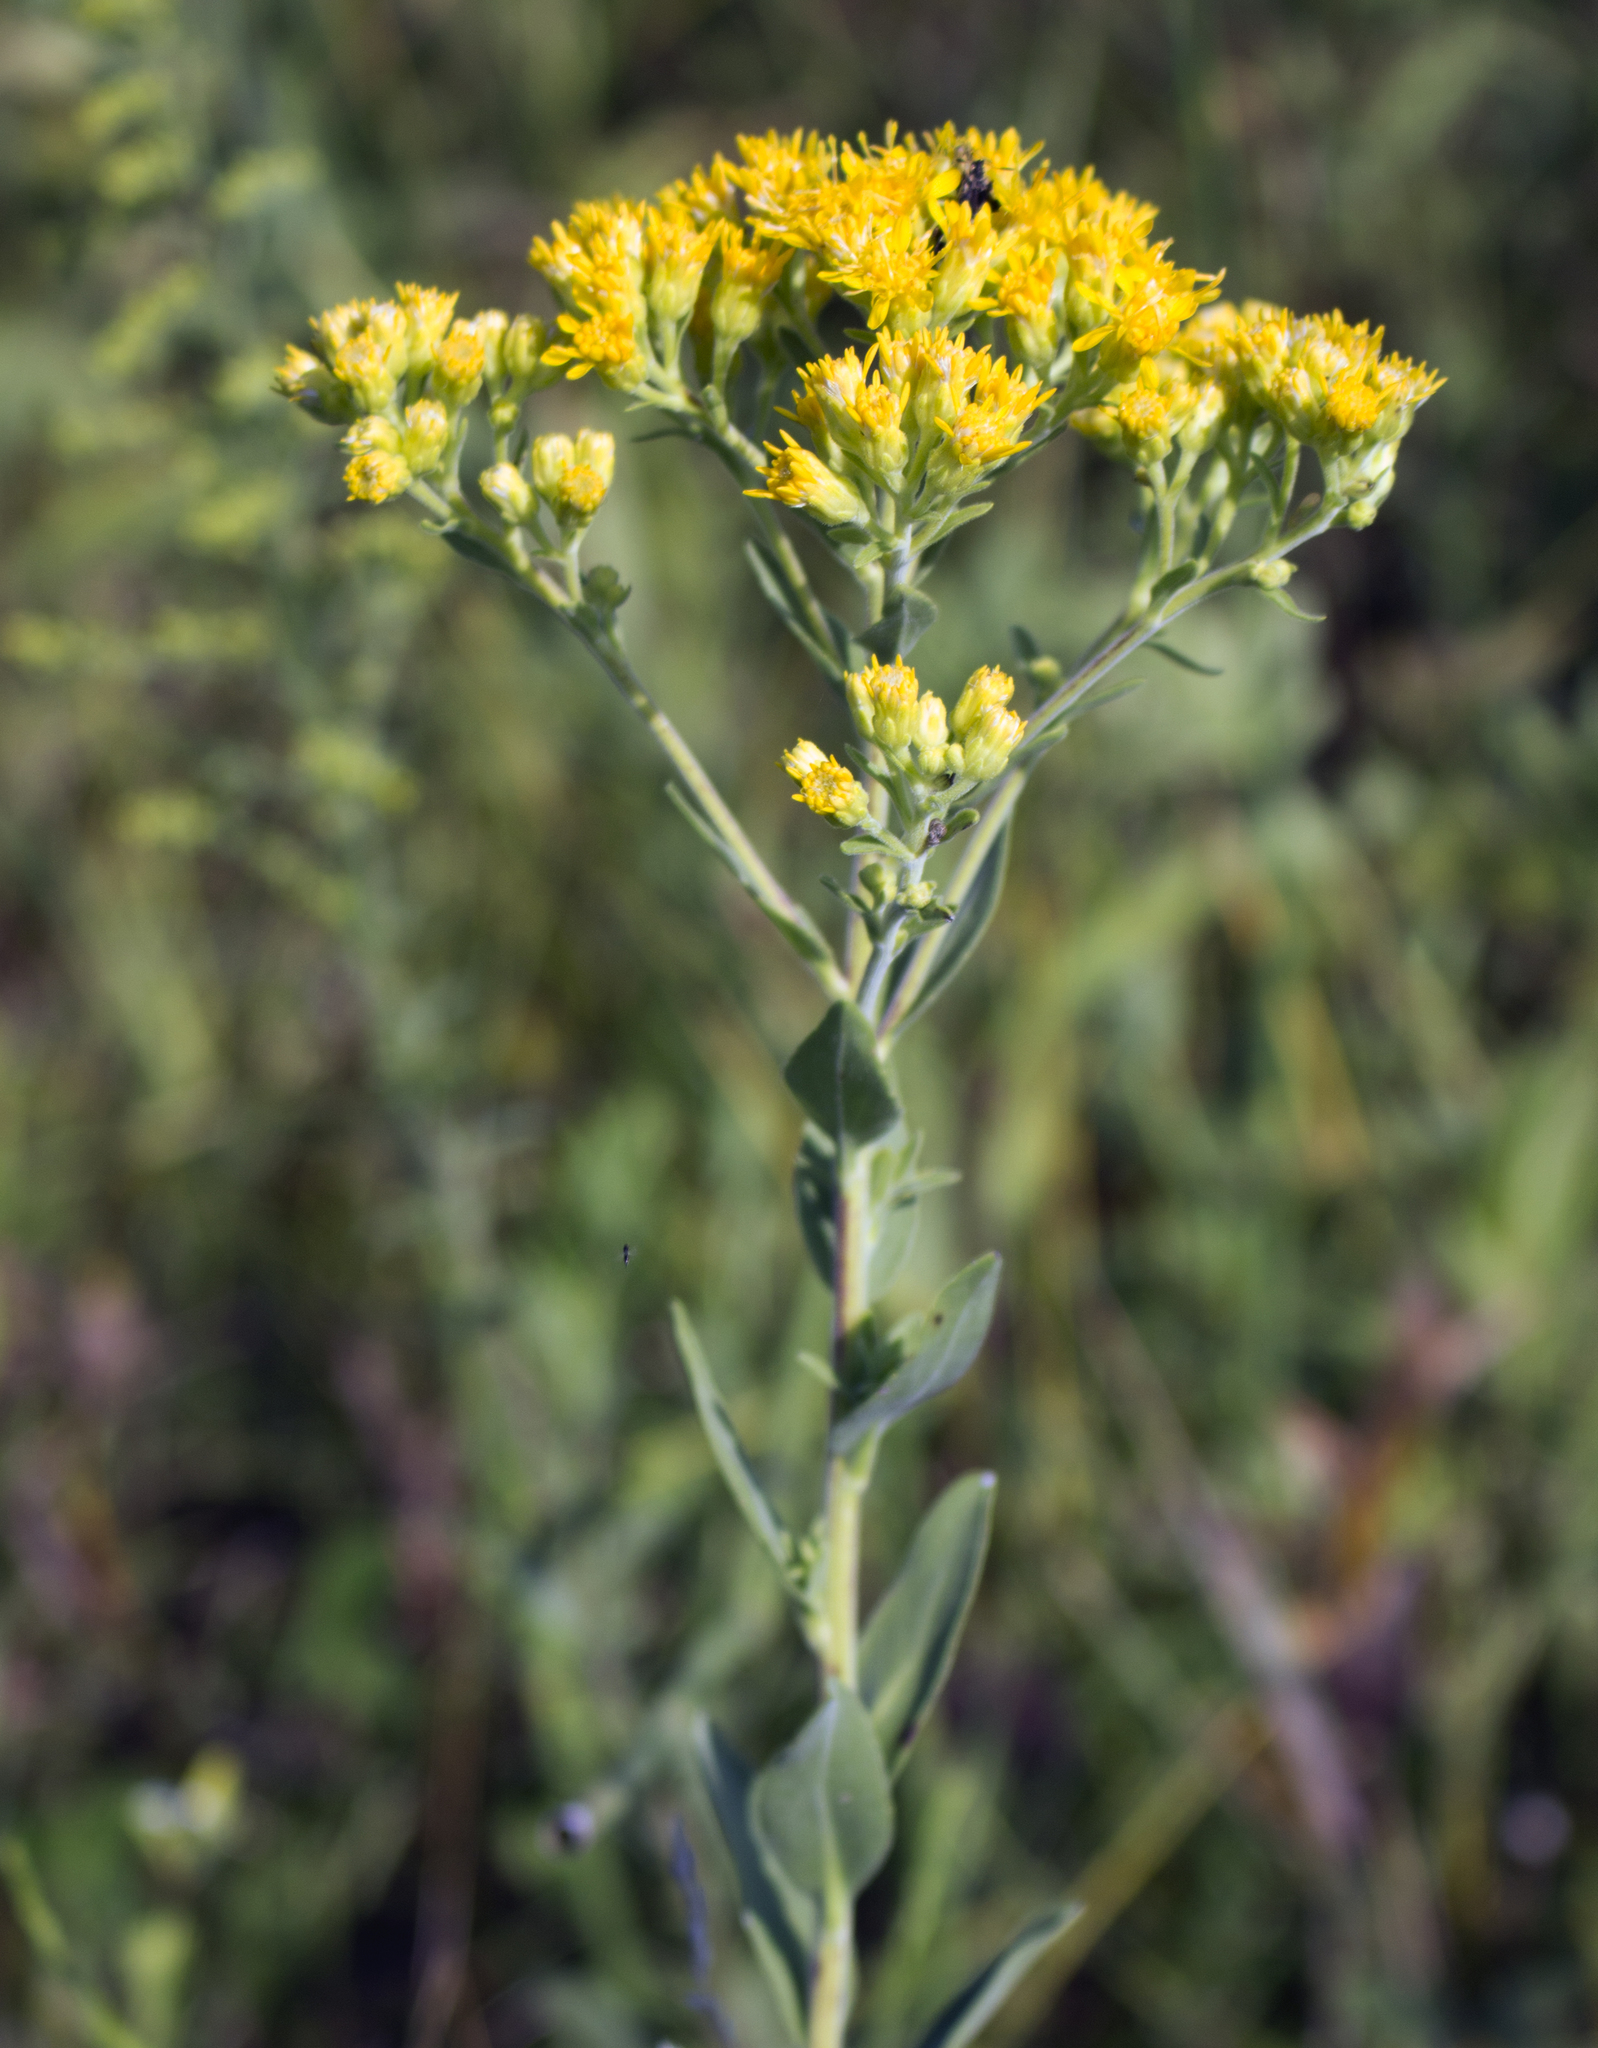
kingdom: Plantae
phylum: Tracheophyta
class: Magnoliopsida
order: Asterales
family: Asteraceae
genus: Solidago
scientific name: Solidago rigida
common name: Rigid goldenrod
